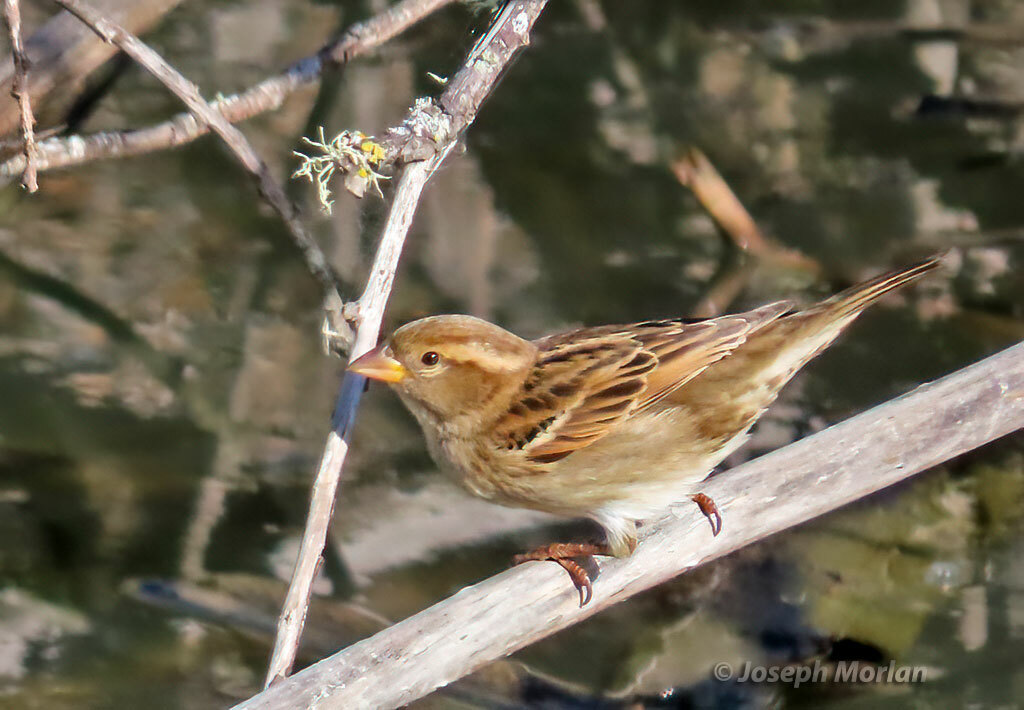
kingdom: Animalia
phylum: Chordata
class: Aves
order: Passeriformes
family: Passeridae
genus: Passer
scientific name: Passer domesticus
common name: House sparrow
